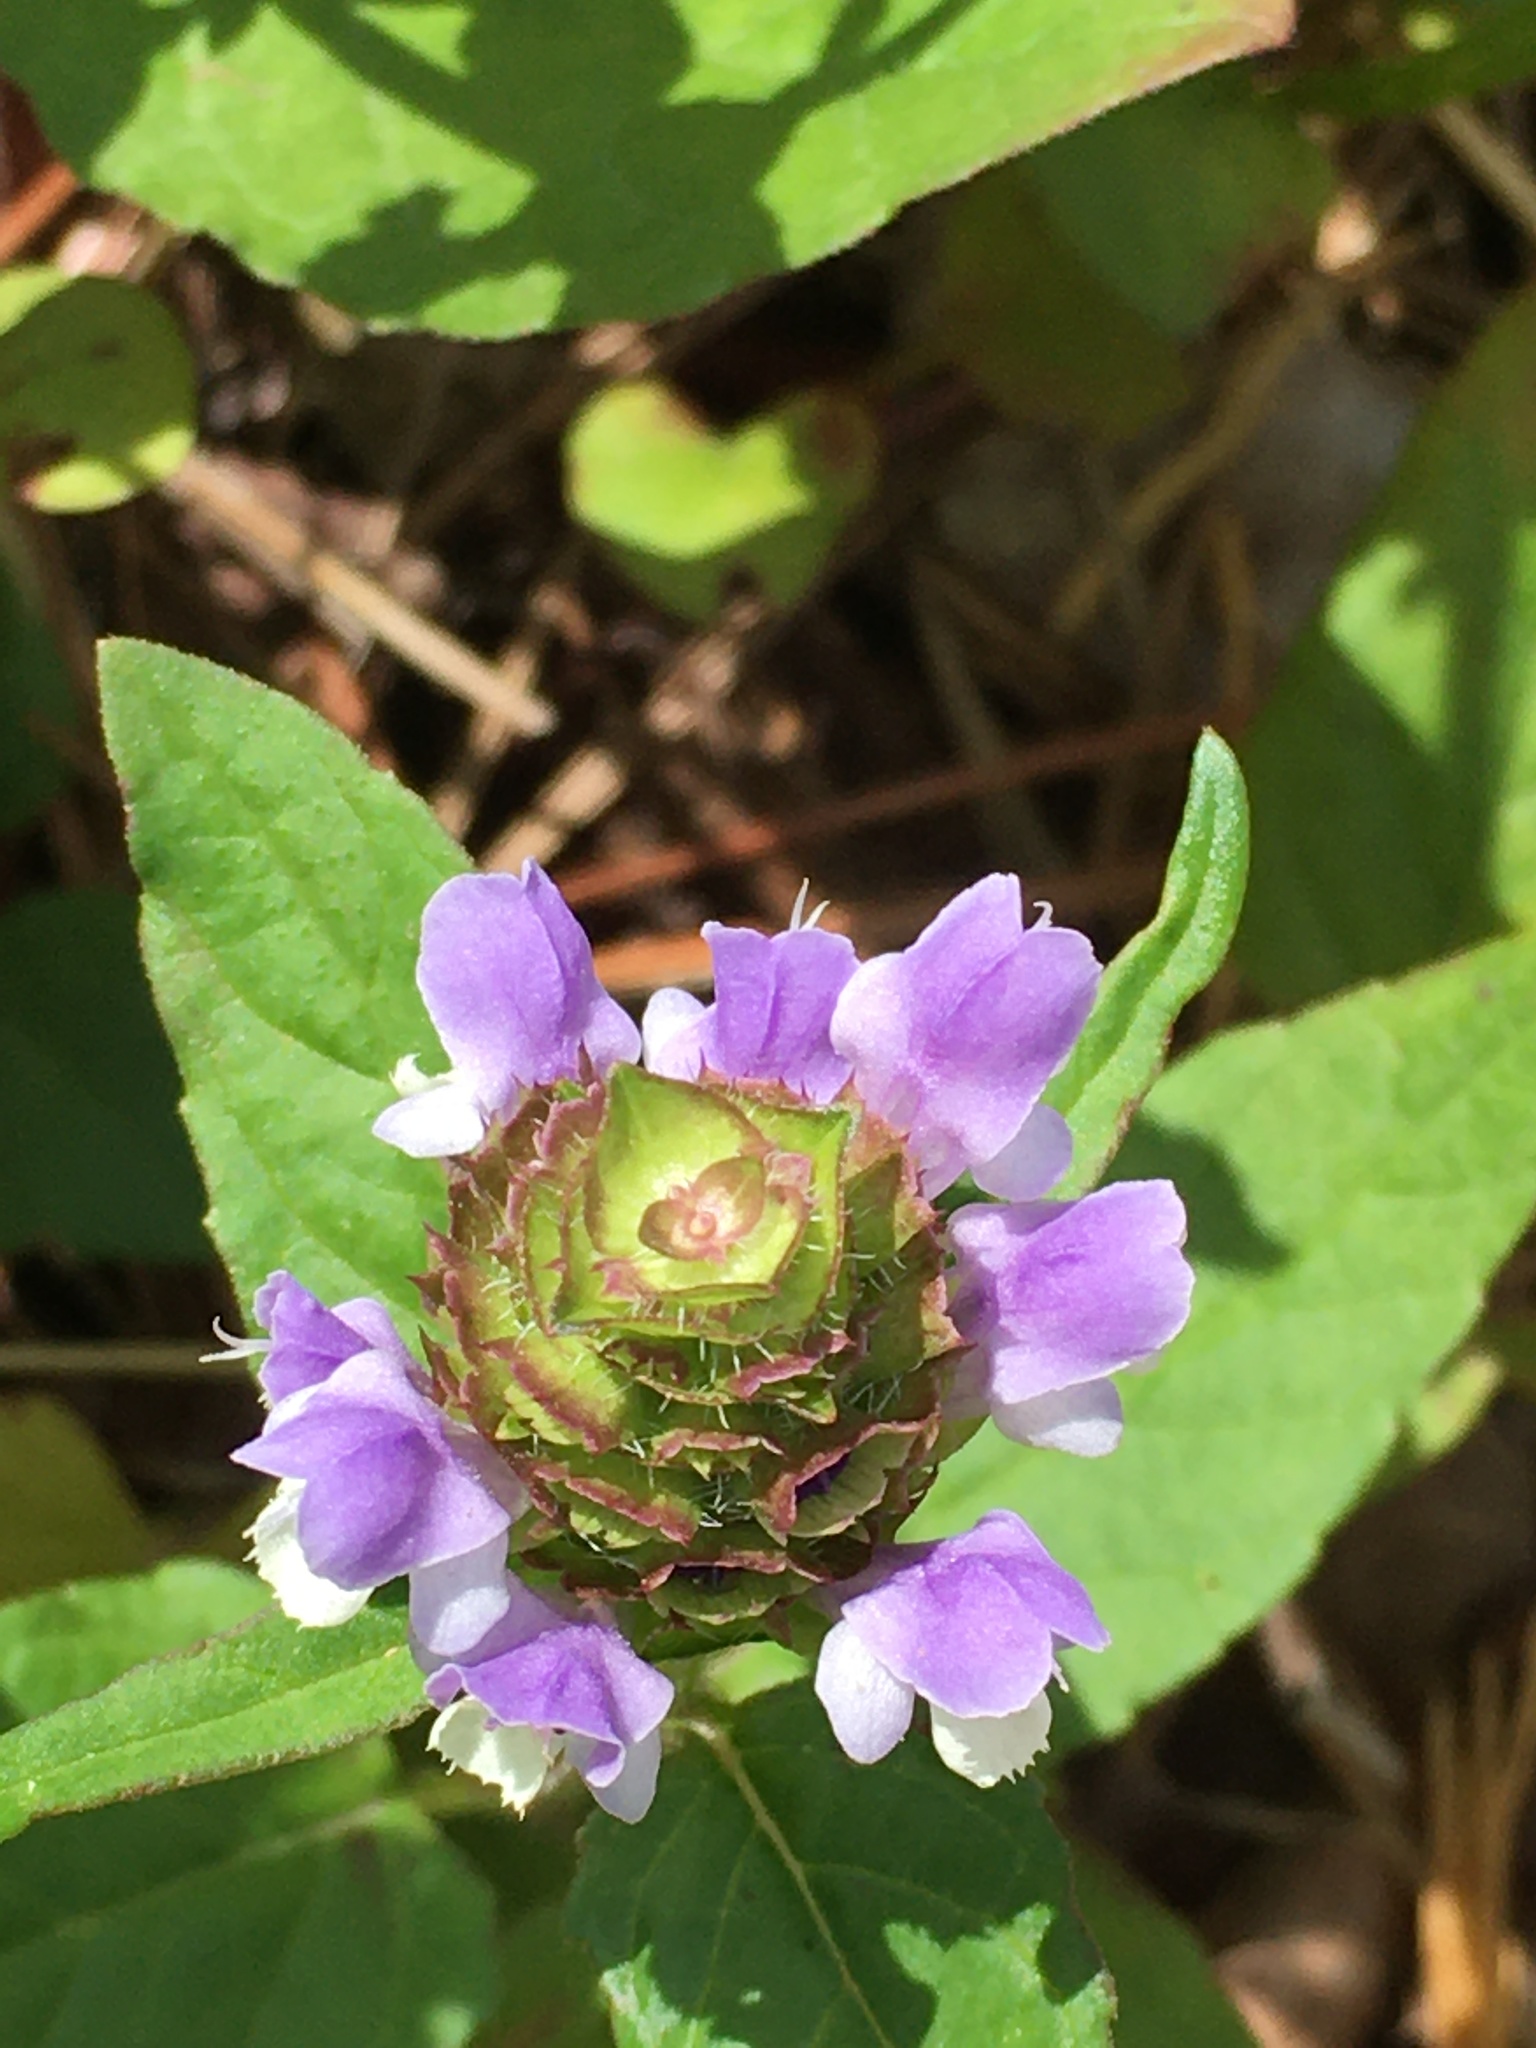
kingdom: Plantae
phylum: Tracheophyta
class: Magnoliopsida
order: Lamiales
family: Lamiaceae
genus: Prunella
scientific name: Prunella vulgaris
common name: Heal-all
